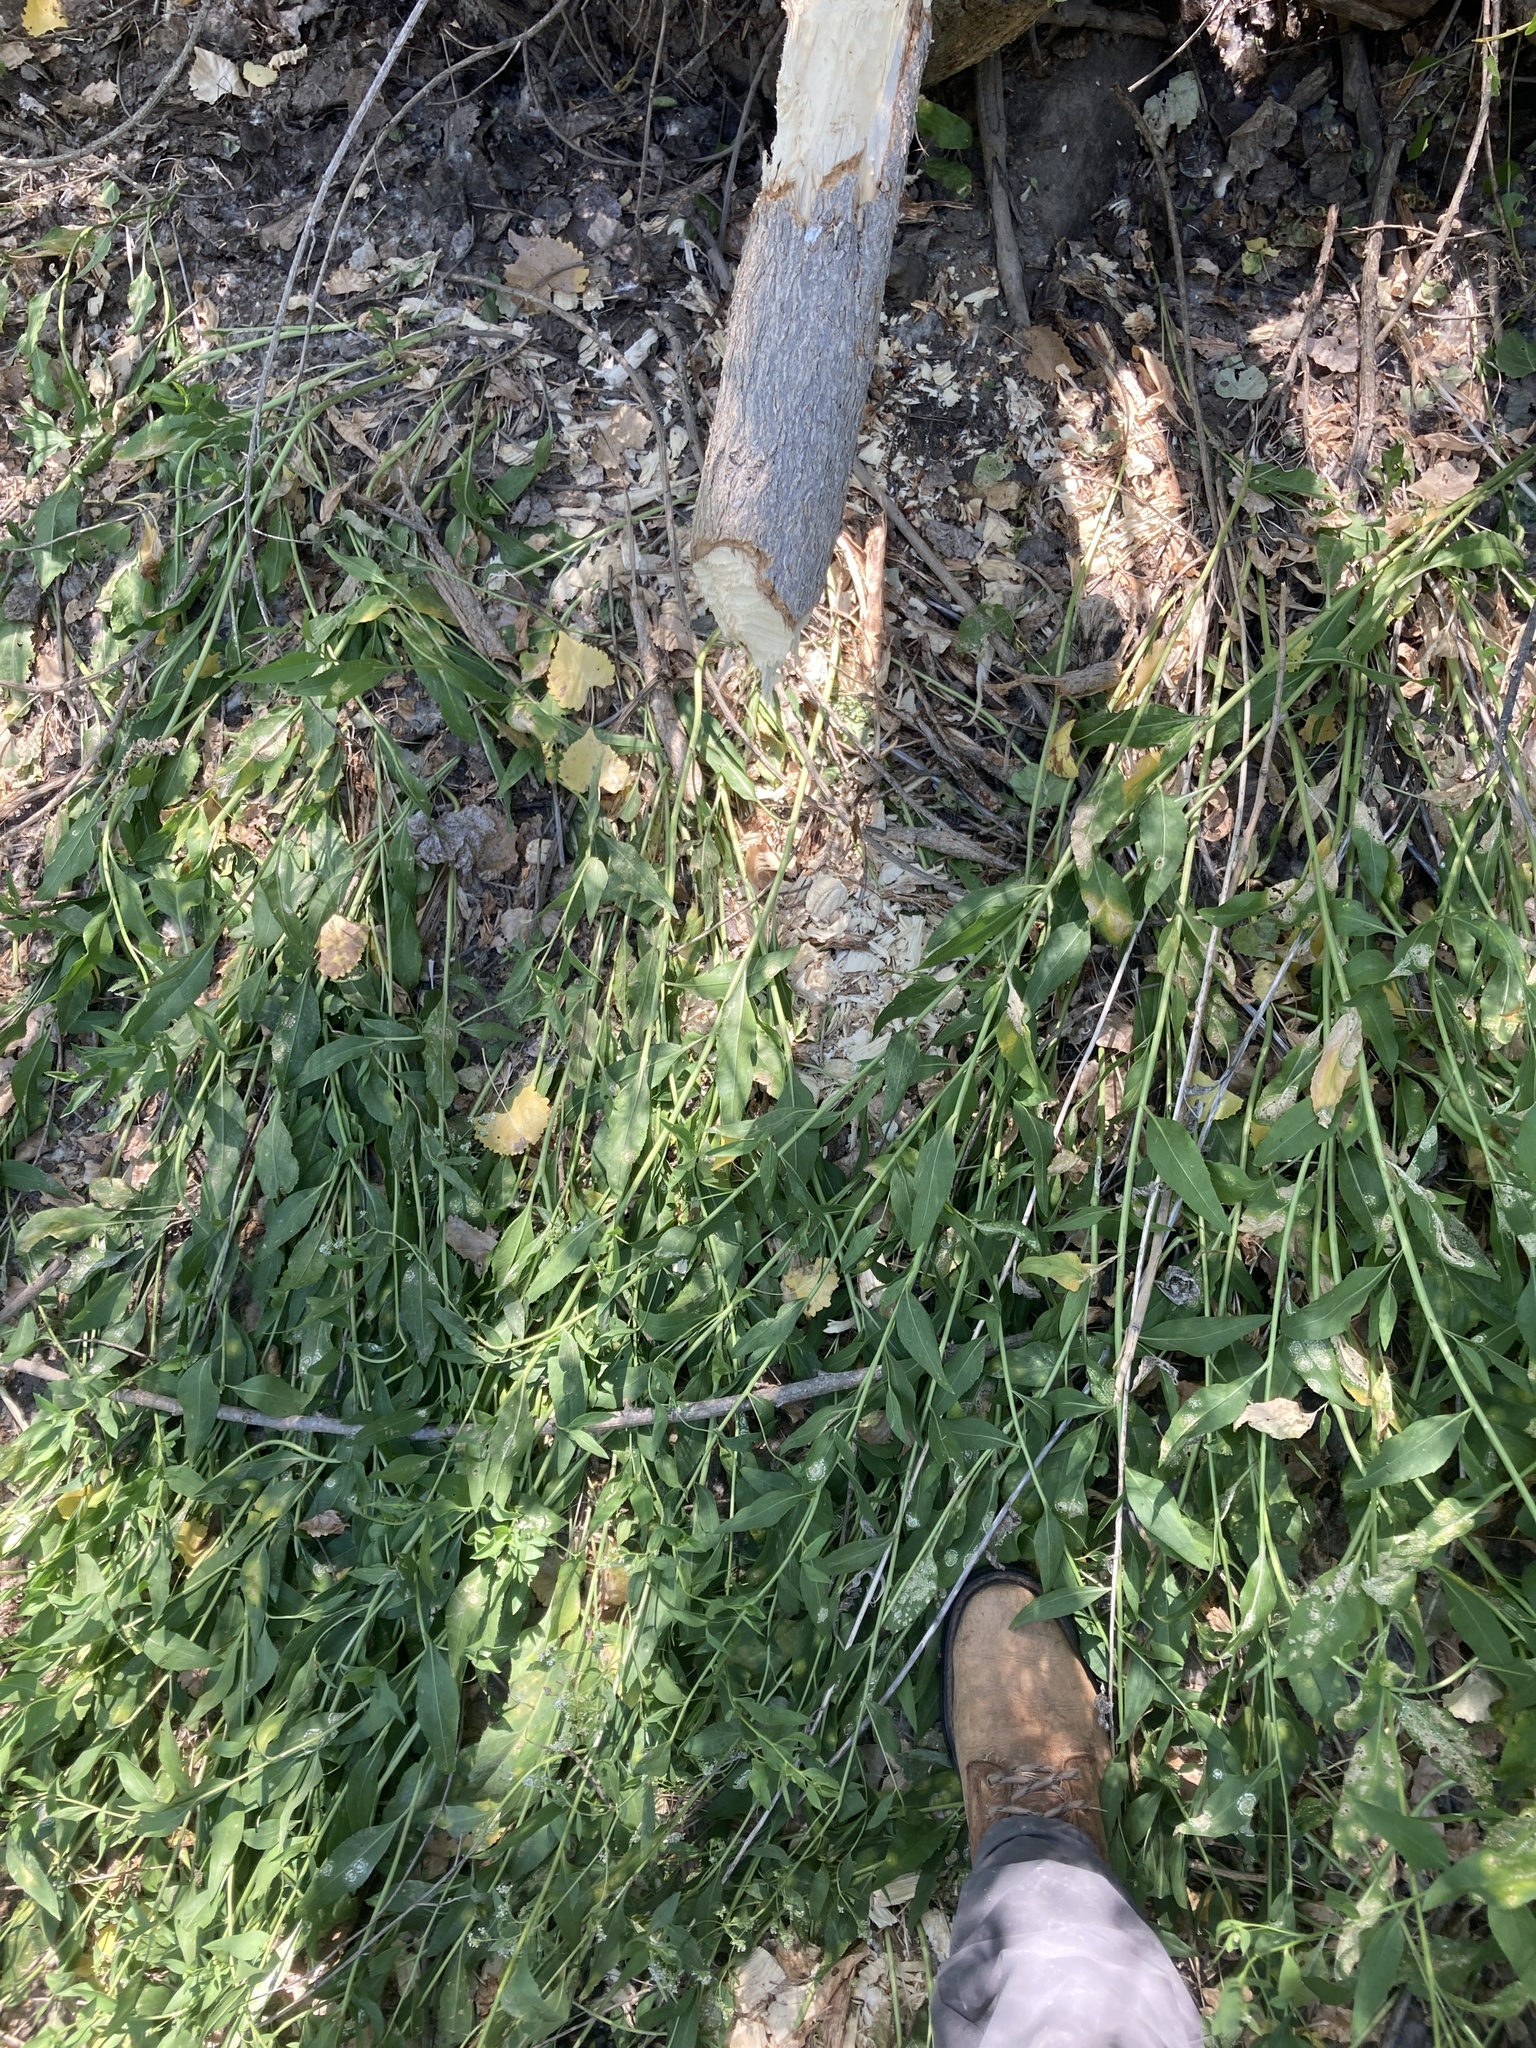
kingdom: Plantae
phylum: Tracheophyta
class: Magnoliopsida
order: Brassicales
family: Brassicaceae
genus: Lepidium
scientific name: Lepidium latifolium
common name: Dittander
